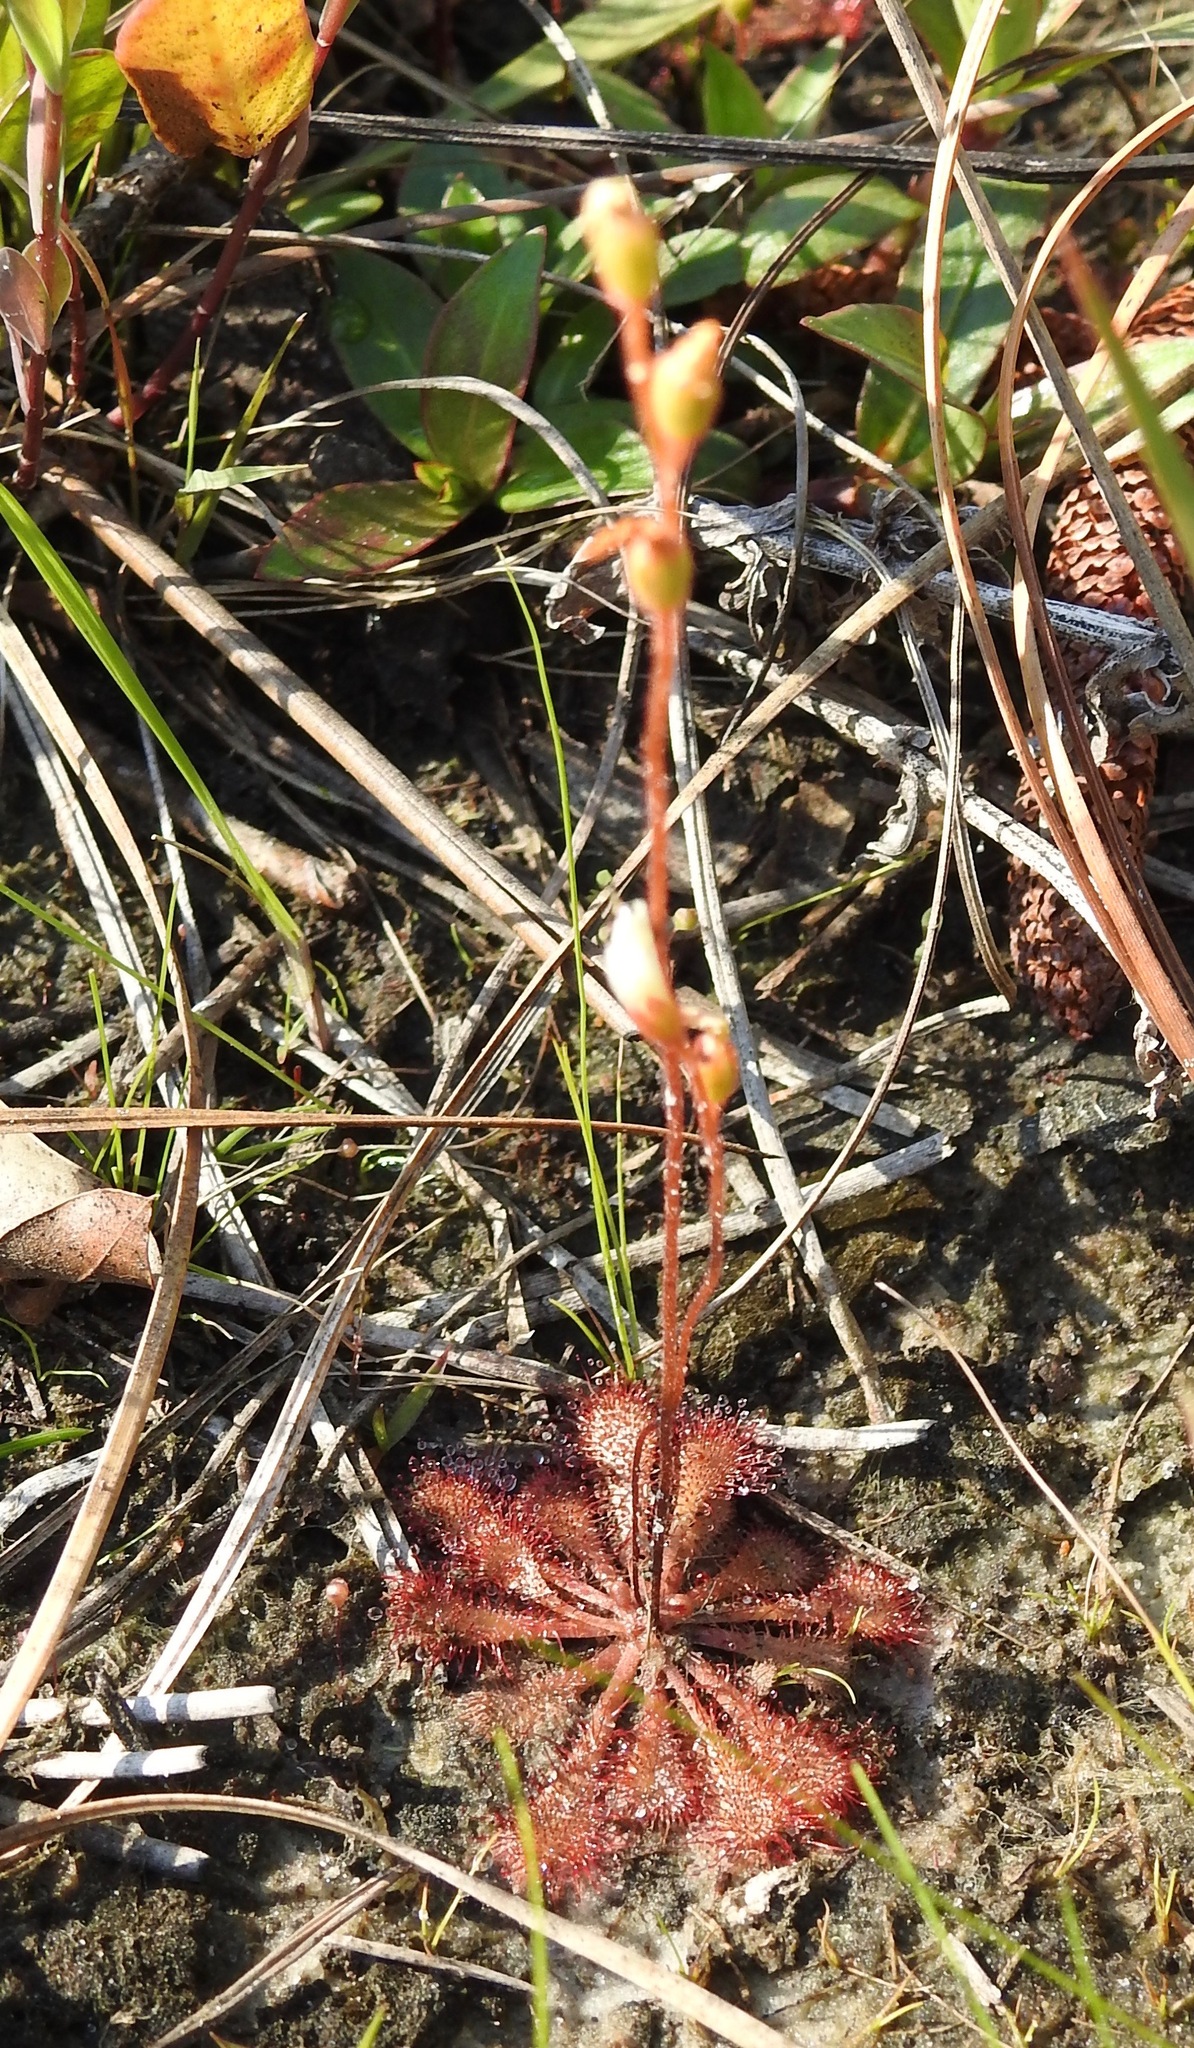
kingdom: Plantae
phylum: Tracheophyta
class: Magnoliopsida
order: Caryophyllales
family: Droseraceae
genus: Drosera
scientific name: Drosera brevifolia
